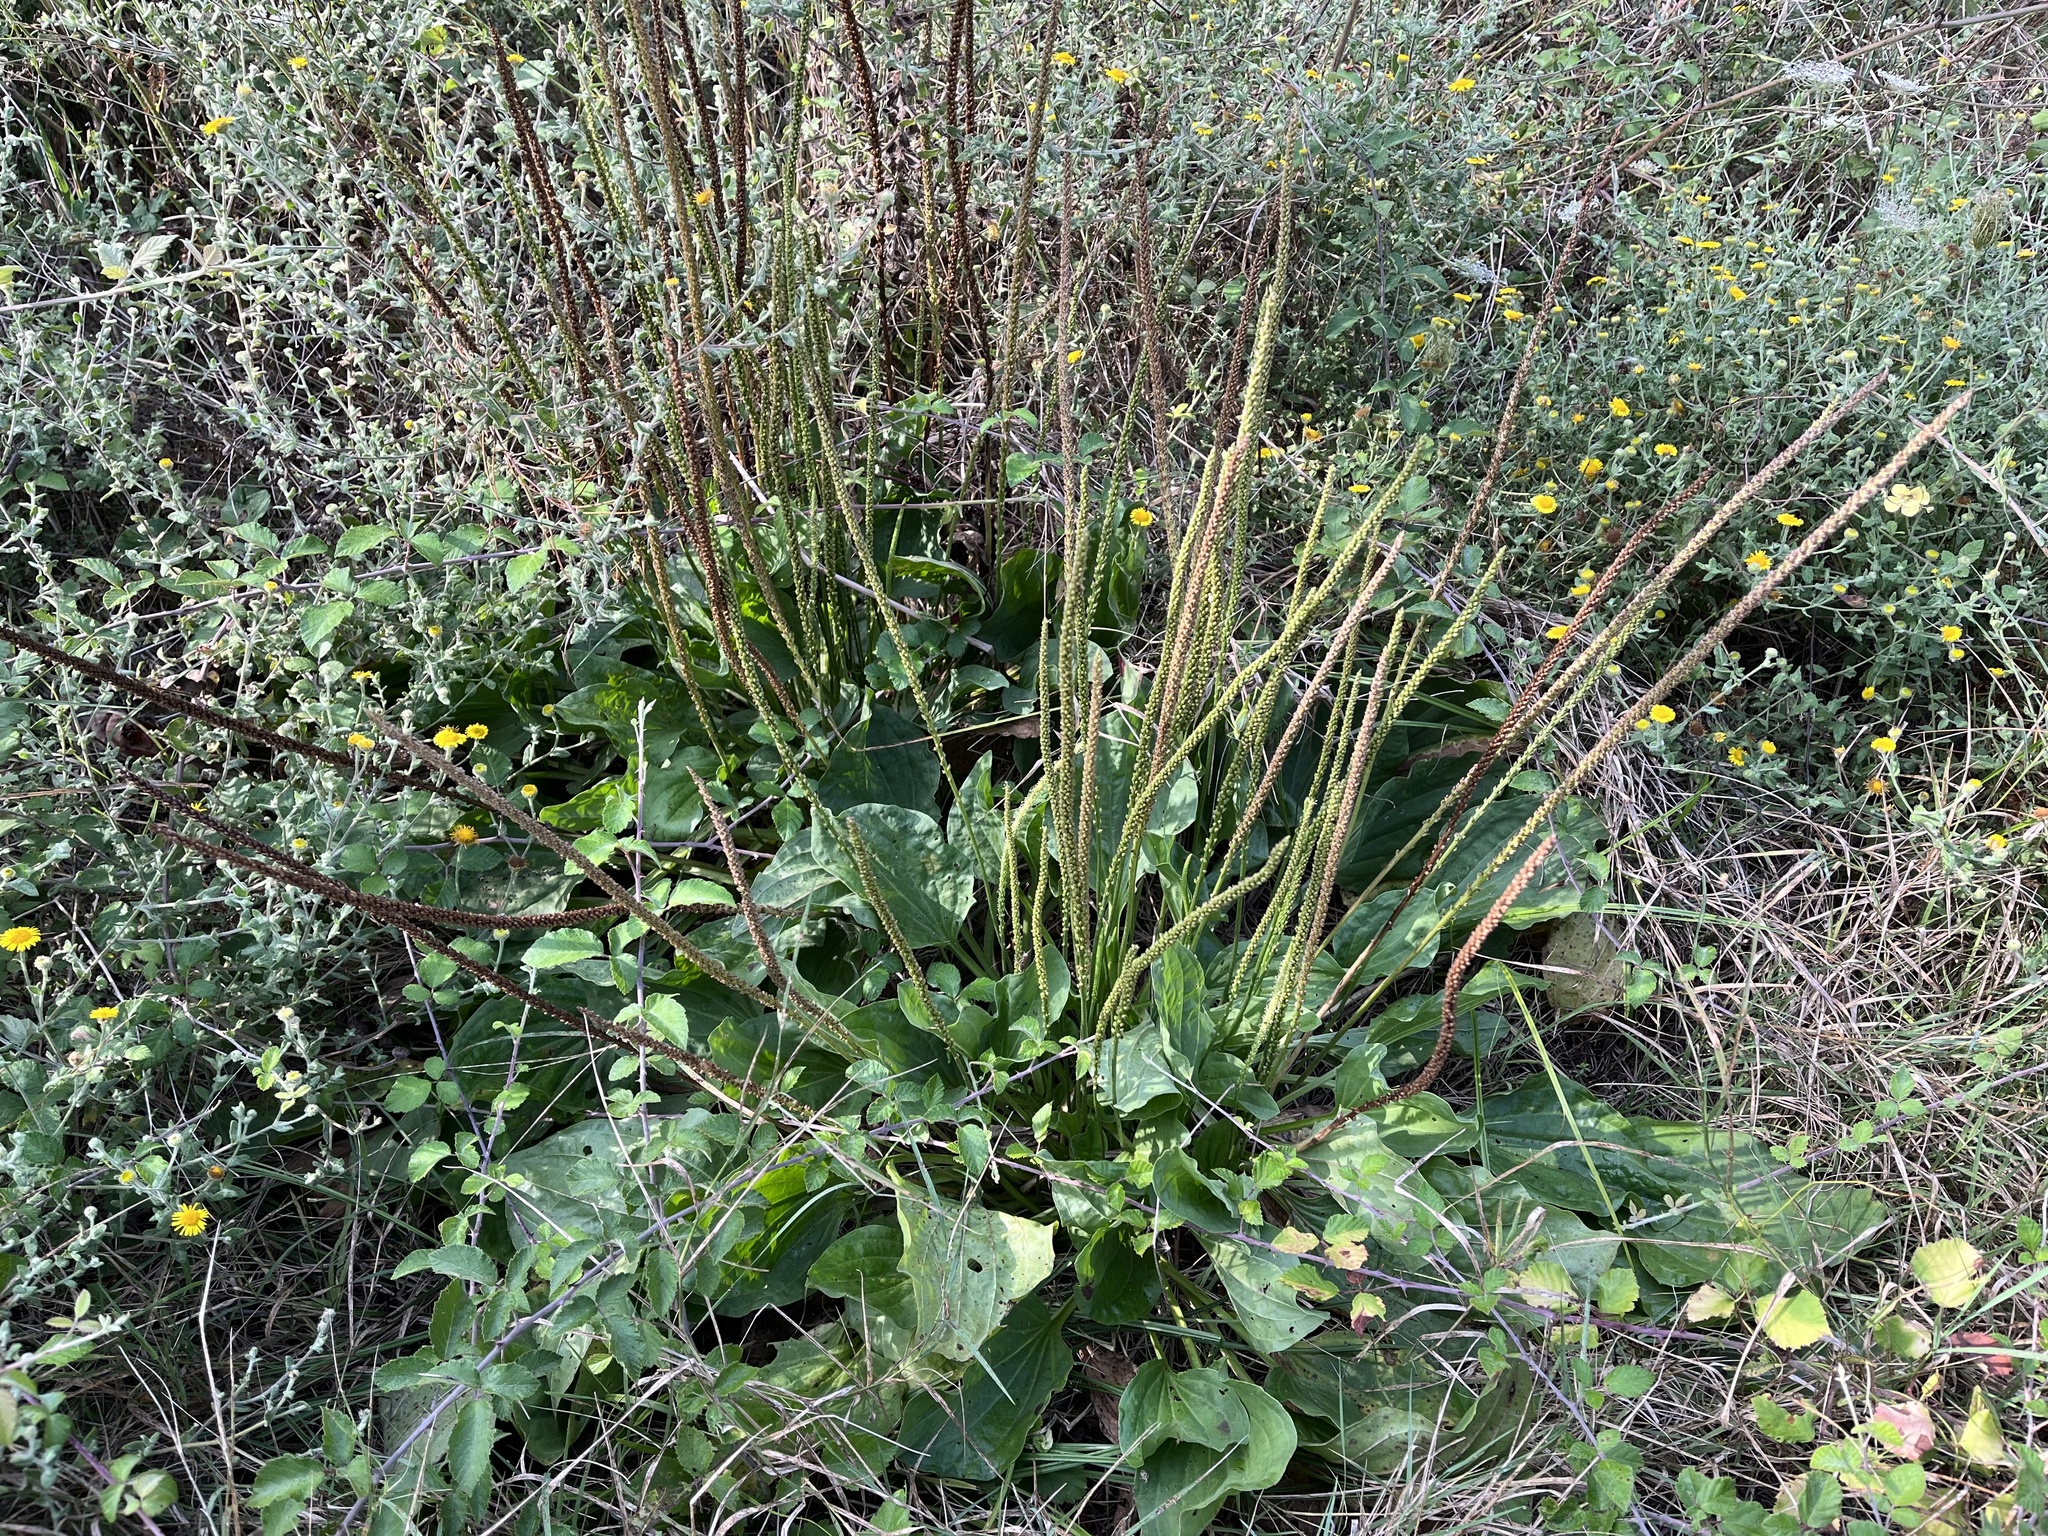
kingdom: Plantae
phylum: Tracheophyta
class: Magnoliopsida
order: Lamiales
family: Plantaginaceae
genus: Plantago
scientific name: Plantago major
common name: Common plantain
